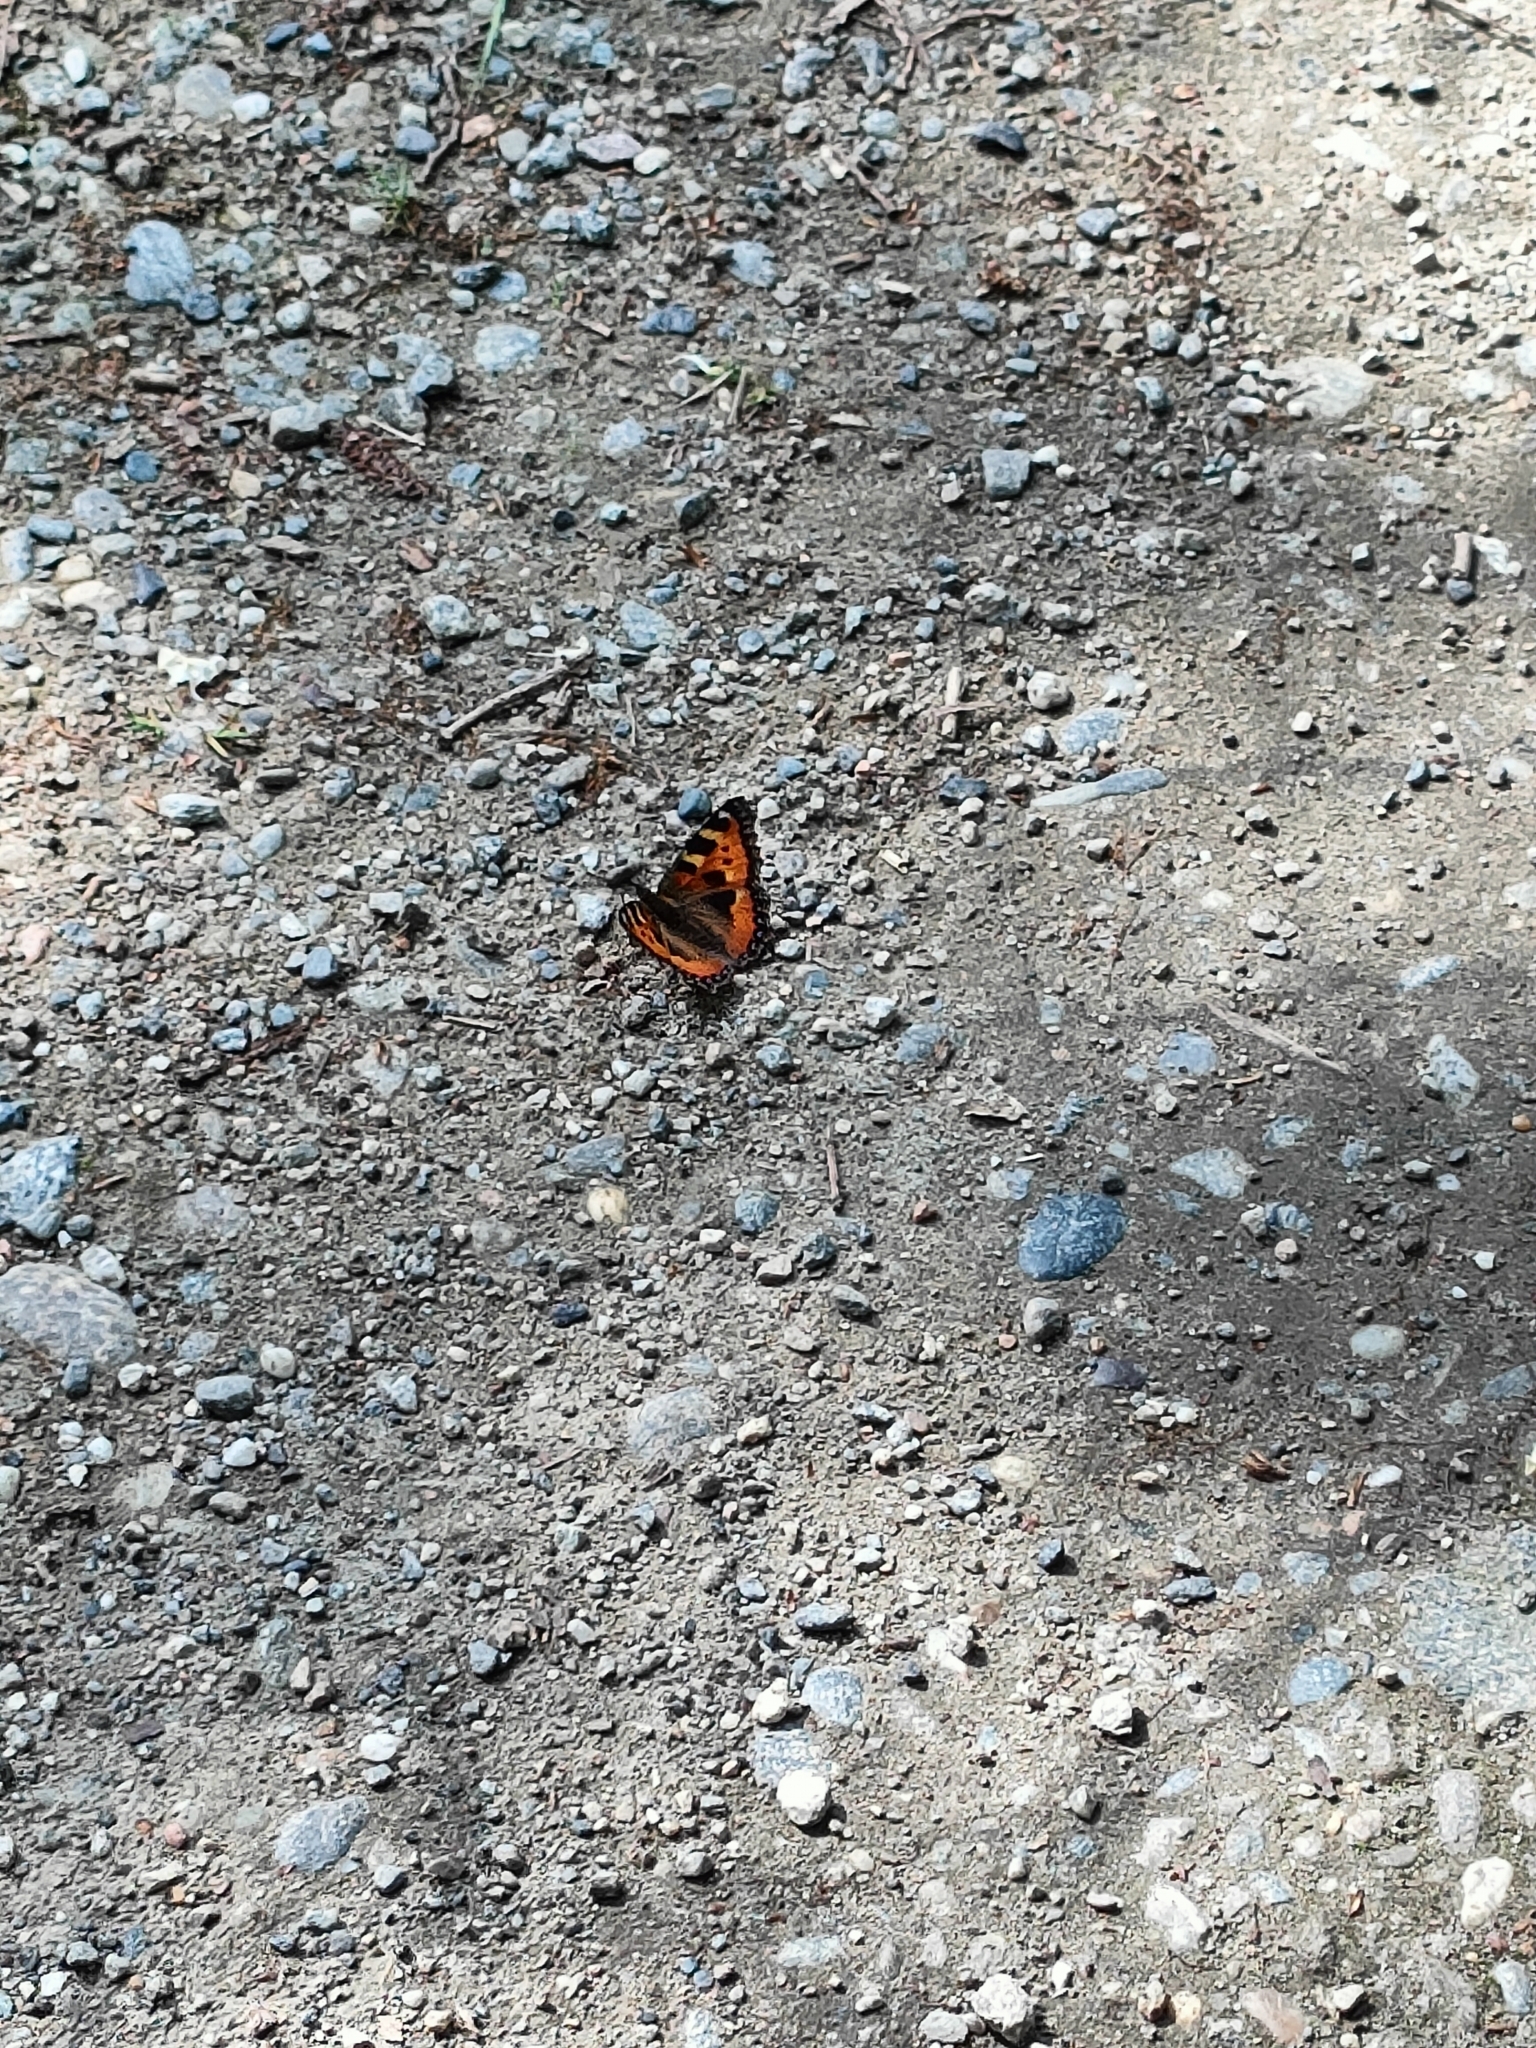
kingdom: Animalia
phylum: Arthropoda
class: Insecta
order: Lepidoptera
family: Nymphalidae
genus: Aglais
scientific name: Aglais urticae
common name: Small tortoiseshell
